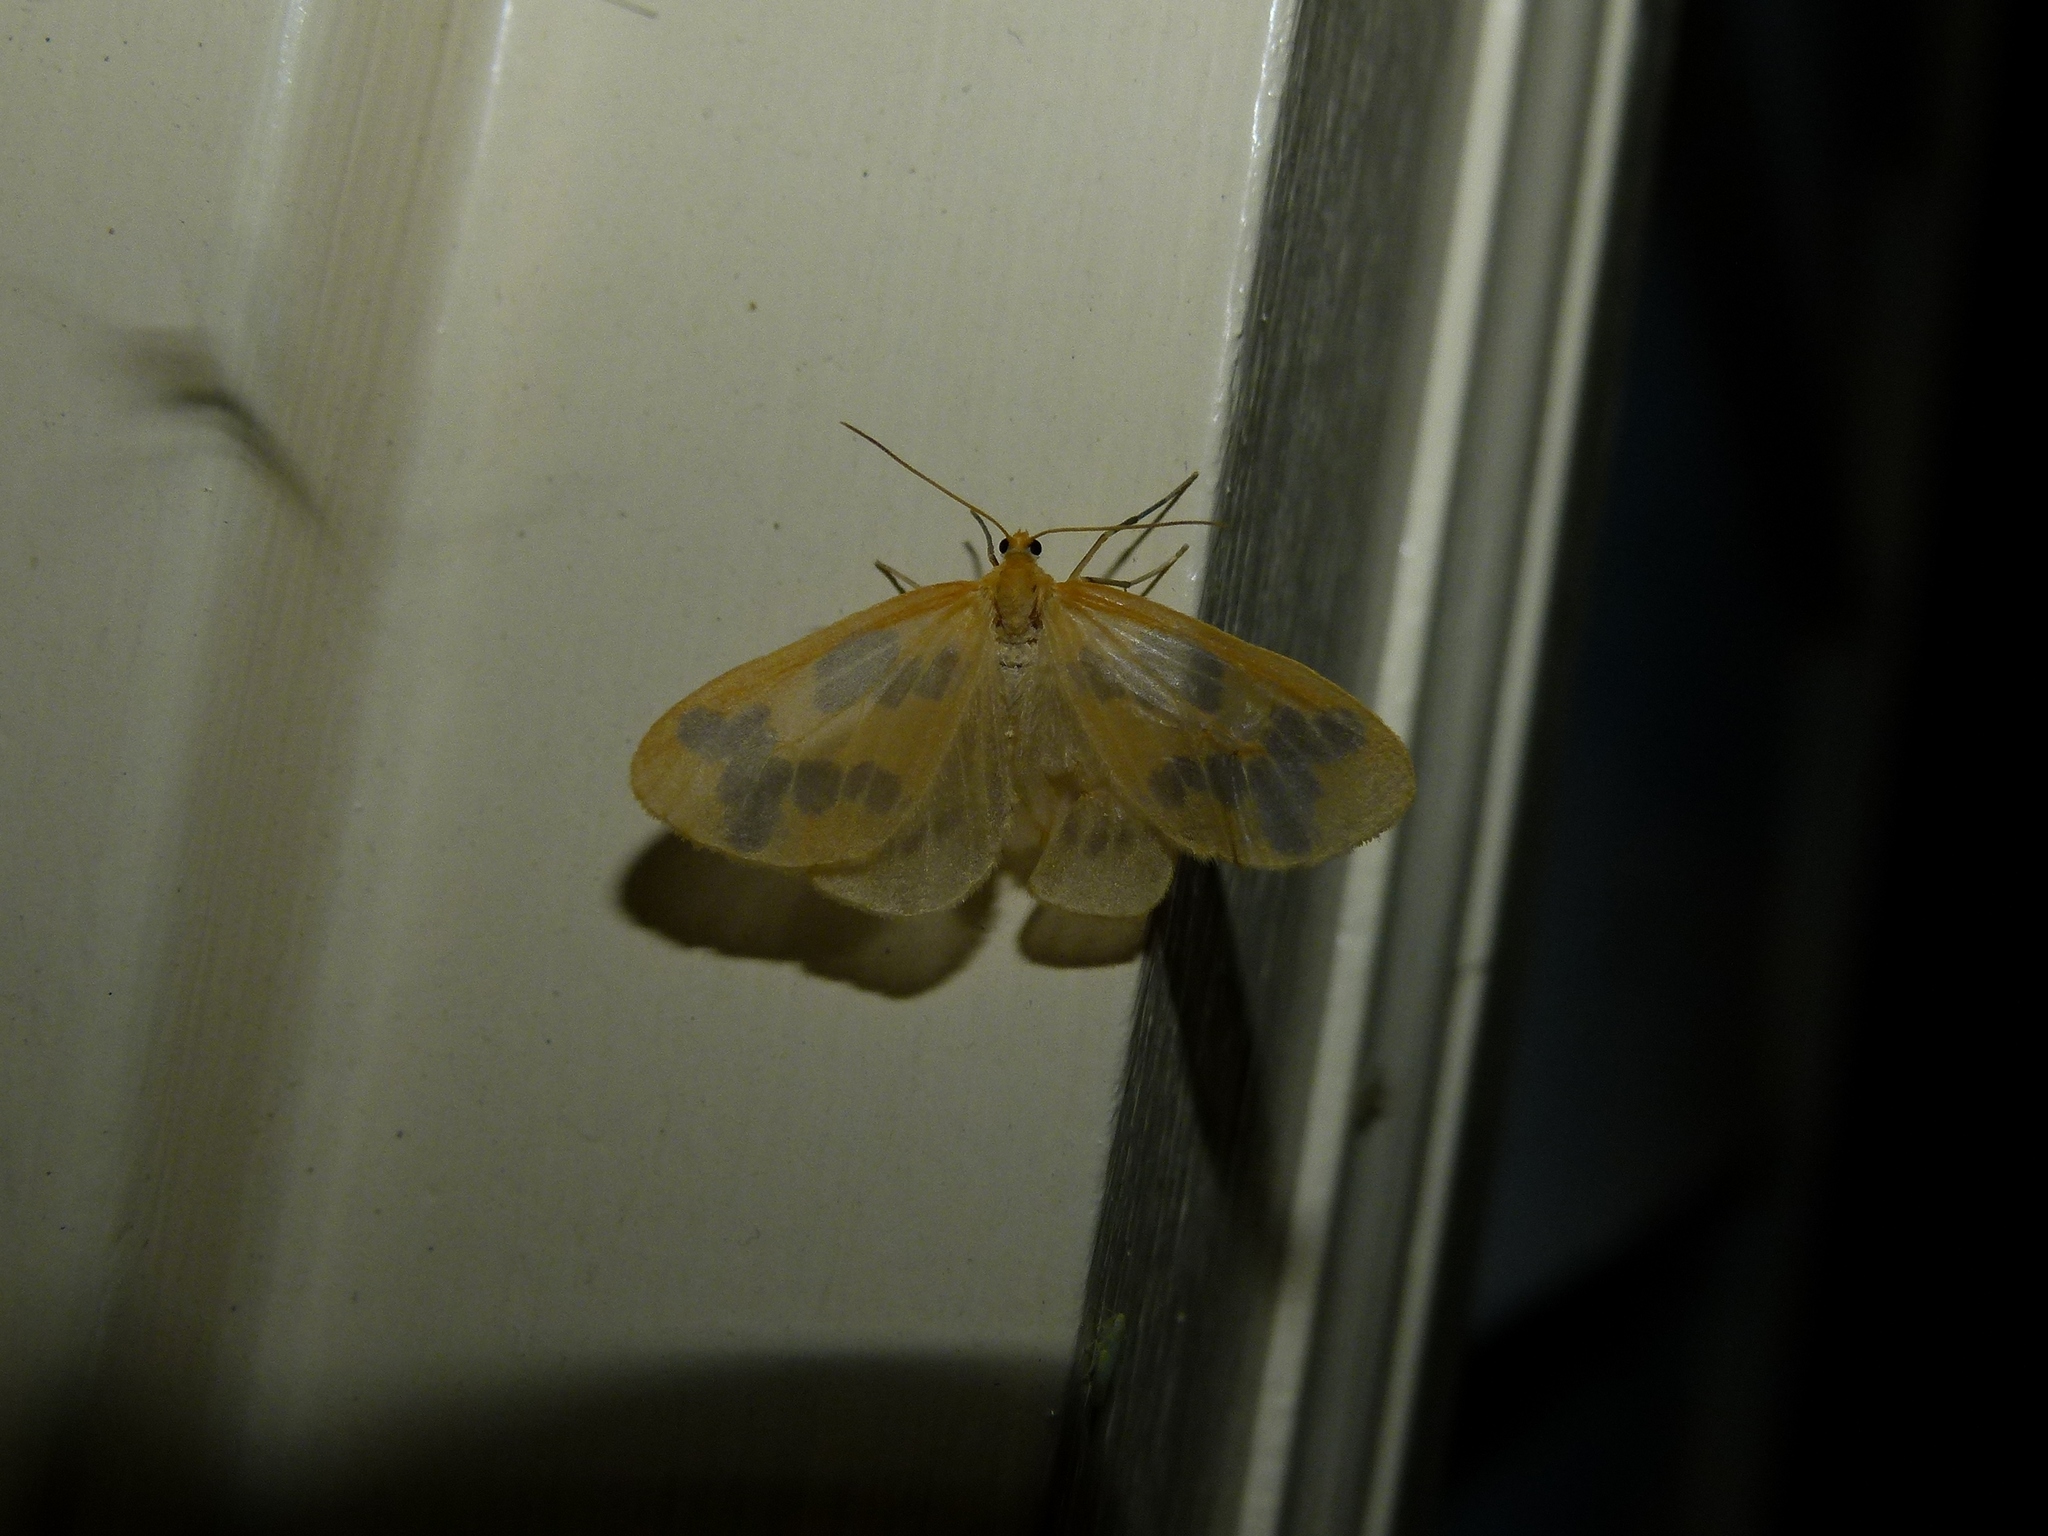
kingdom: Animalia
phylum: Arthropoda
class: Insecta
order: Lepidoptera
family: Geometridae
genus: Eubaphe
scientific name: Eubaphe mendica
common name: Beggar
